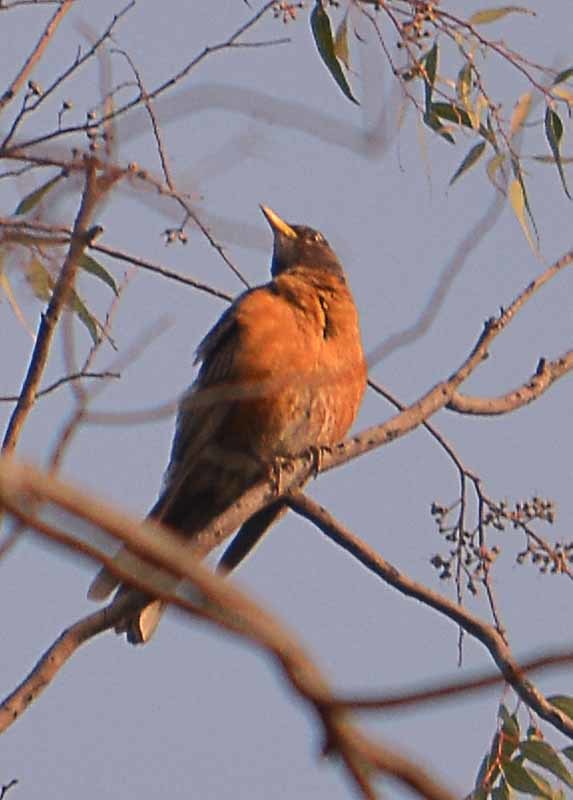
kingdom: Animalia
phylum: Chordata
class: Aves
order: Passeriformes
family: Turdidae
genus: Turdus
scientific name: Turdus migratorius
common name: American robin
